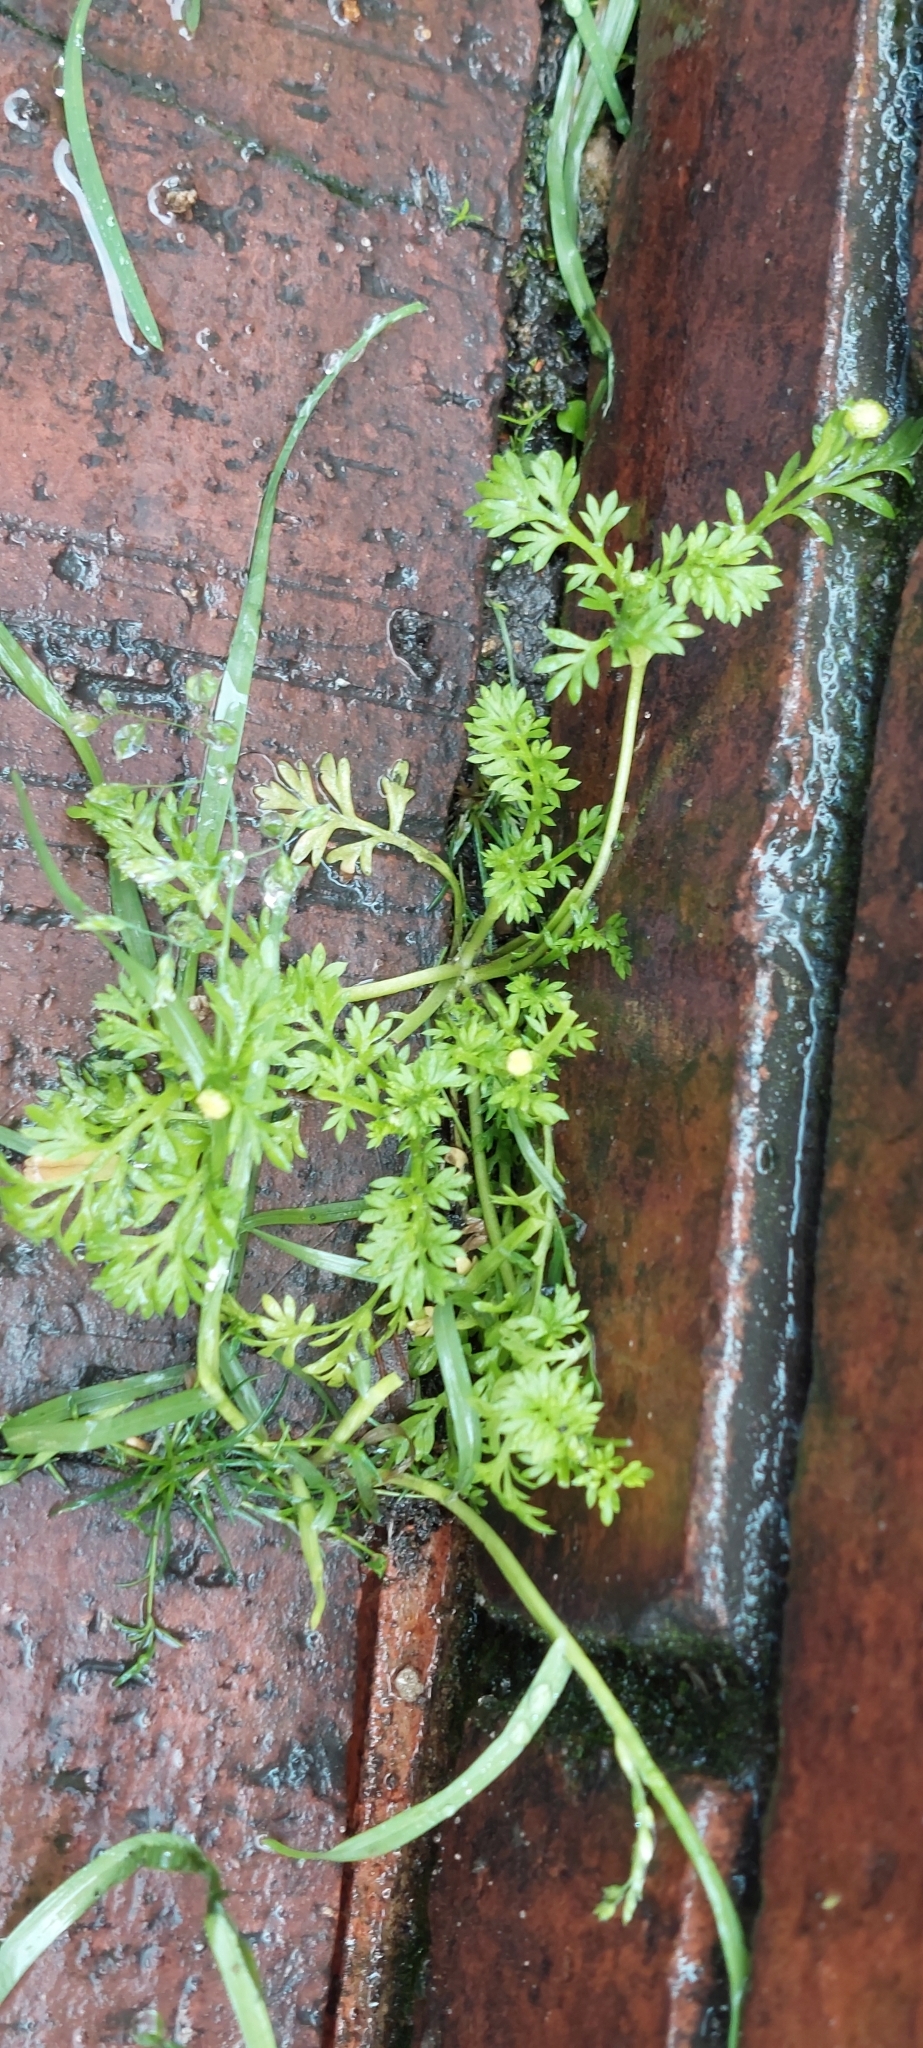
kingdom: Plantae
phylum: Tracheophyta
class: Magnoliopsida
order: Asterales
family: Asteraceae
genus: Cotula
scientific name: Cotula australis
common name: Australian waterbuttons
